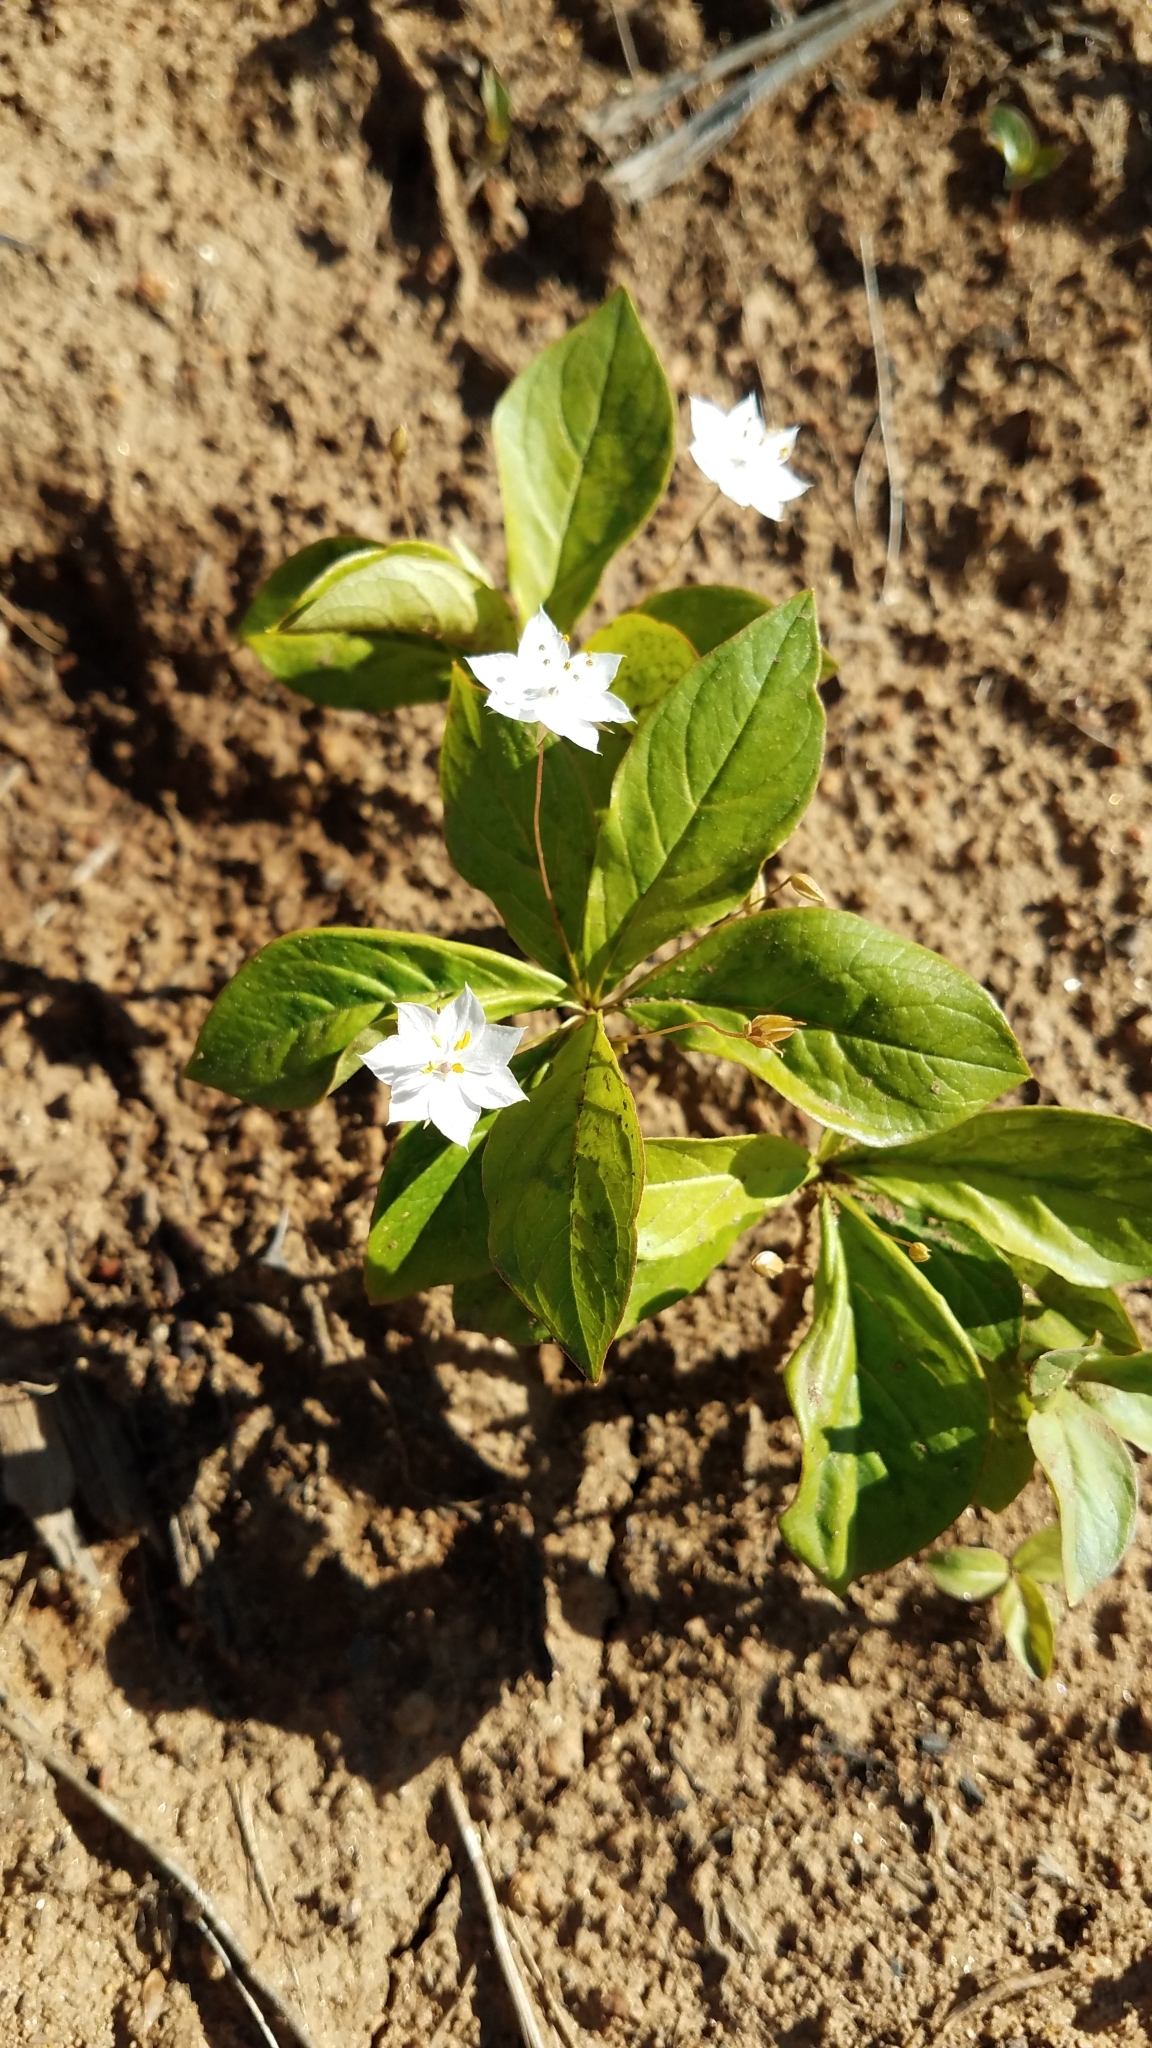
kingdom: Plantae
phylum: Tracheophyta
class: Magnoliopsida
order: Ericales
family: Primulaceae
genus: Lysimachia
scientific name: Lysimachia latifolia
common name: Pacific starflower
